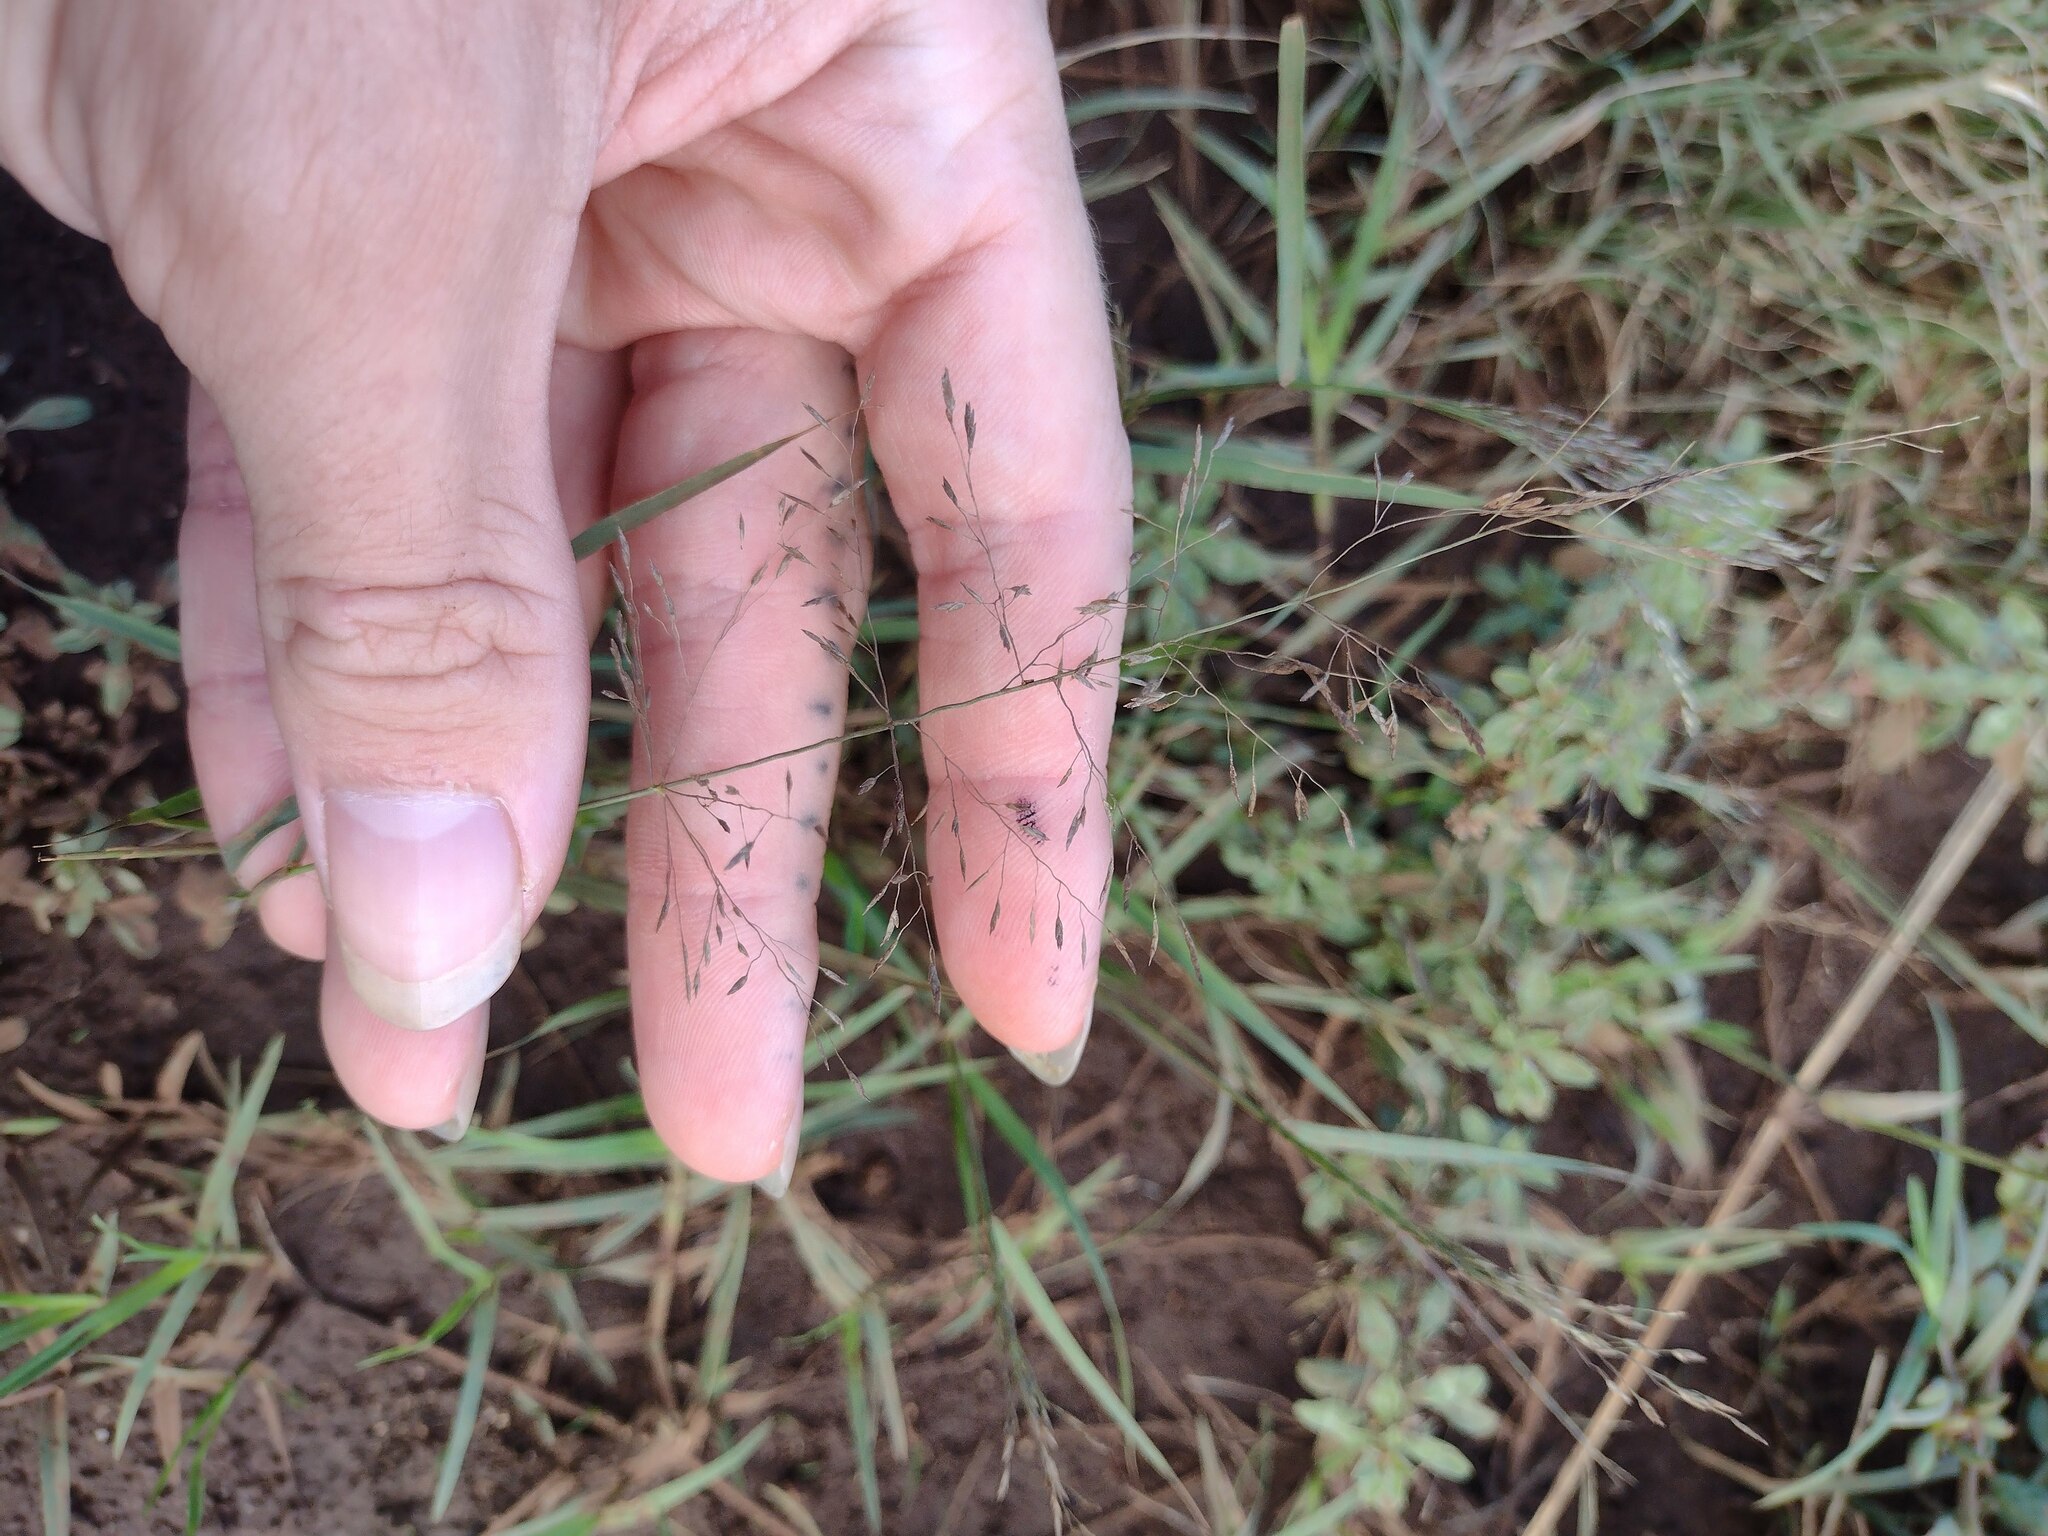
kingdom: Plantae
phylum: Tracheophyta
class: Liliopsida
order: Poales
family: Poaceae
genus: Eragrostis
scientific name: Eragrostis pilosa
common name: Indian lovegrass
